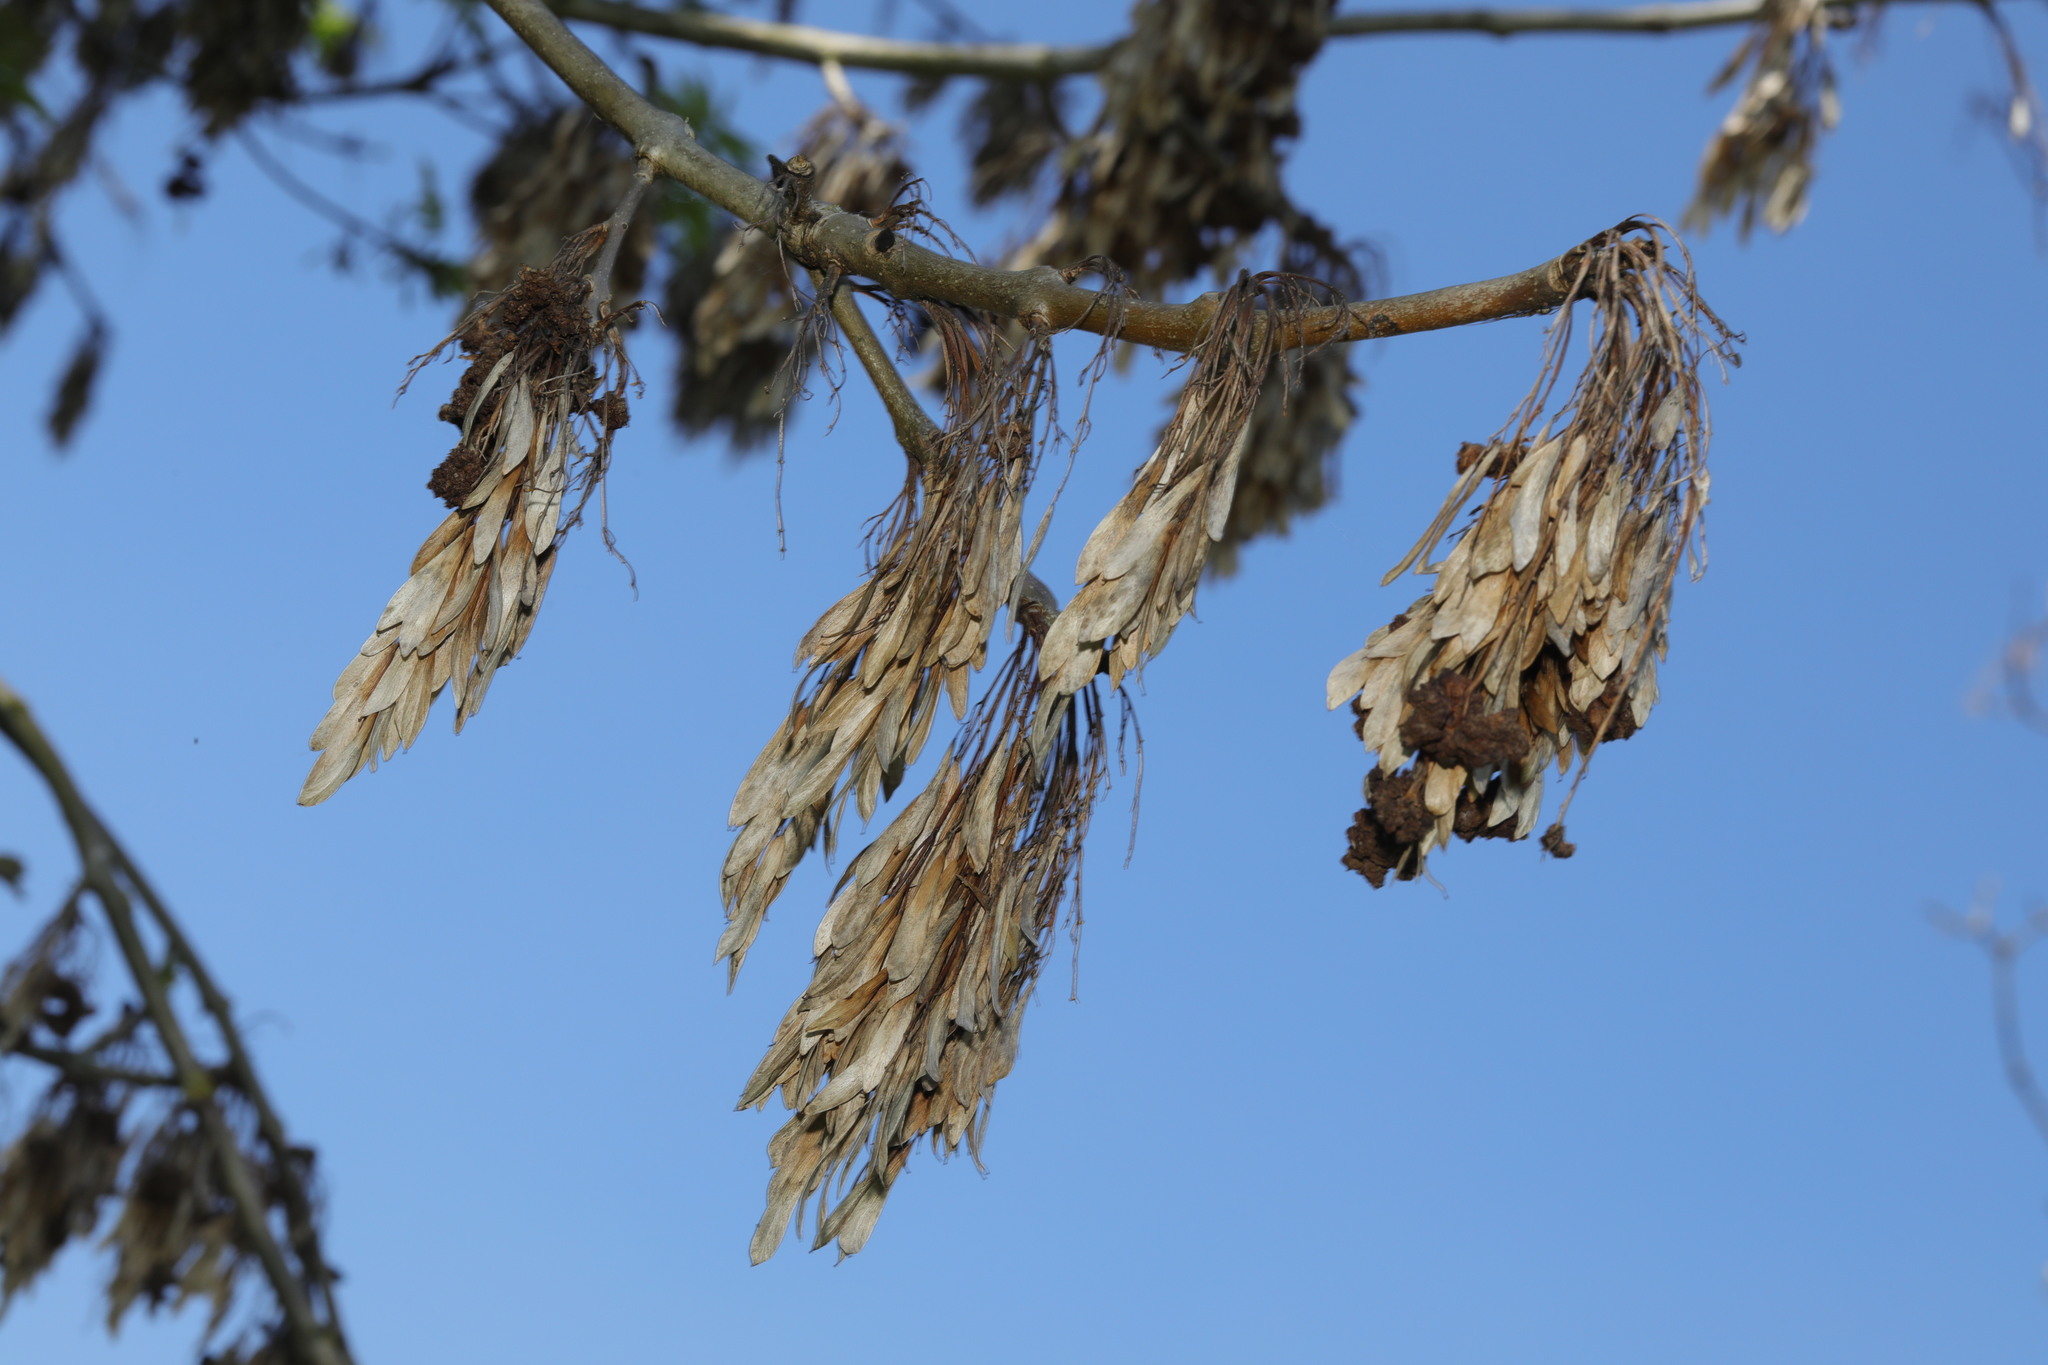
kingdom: Plantae
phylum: Tracheophyta
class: Magnoliopsida
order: Lamiales
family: Oleaceae
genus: Fraxinus
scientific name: Fraxinus excelsior
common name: European ash
